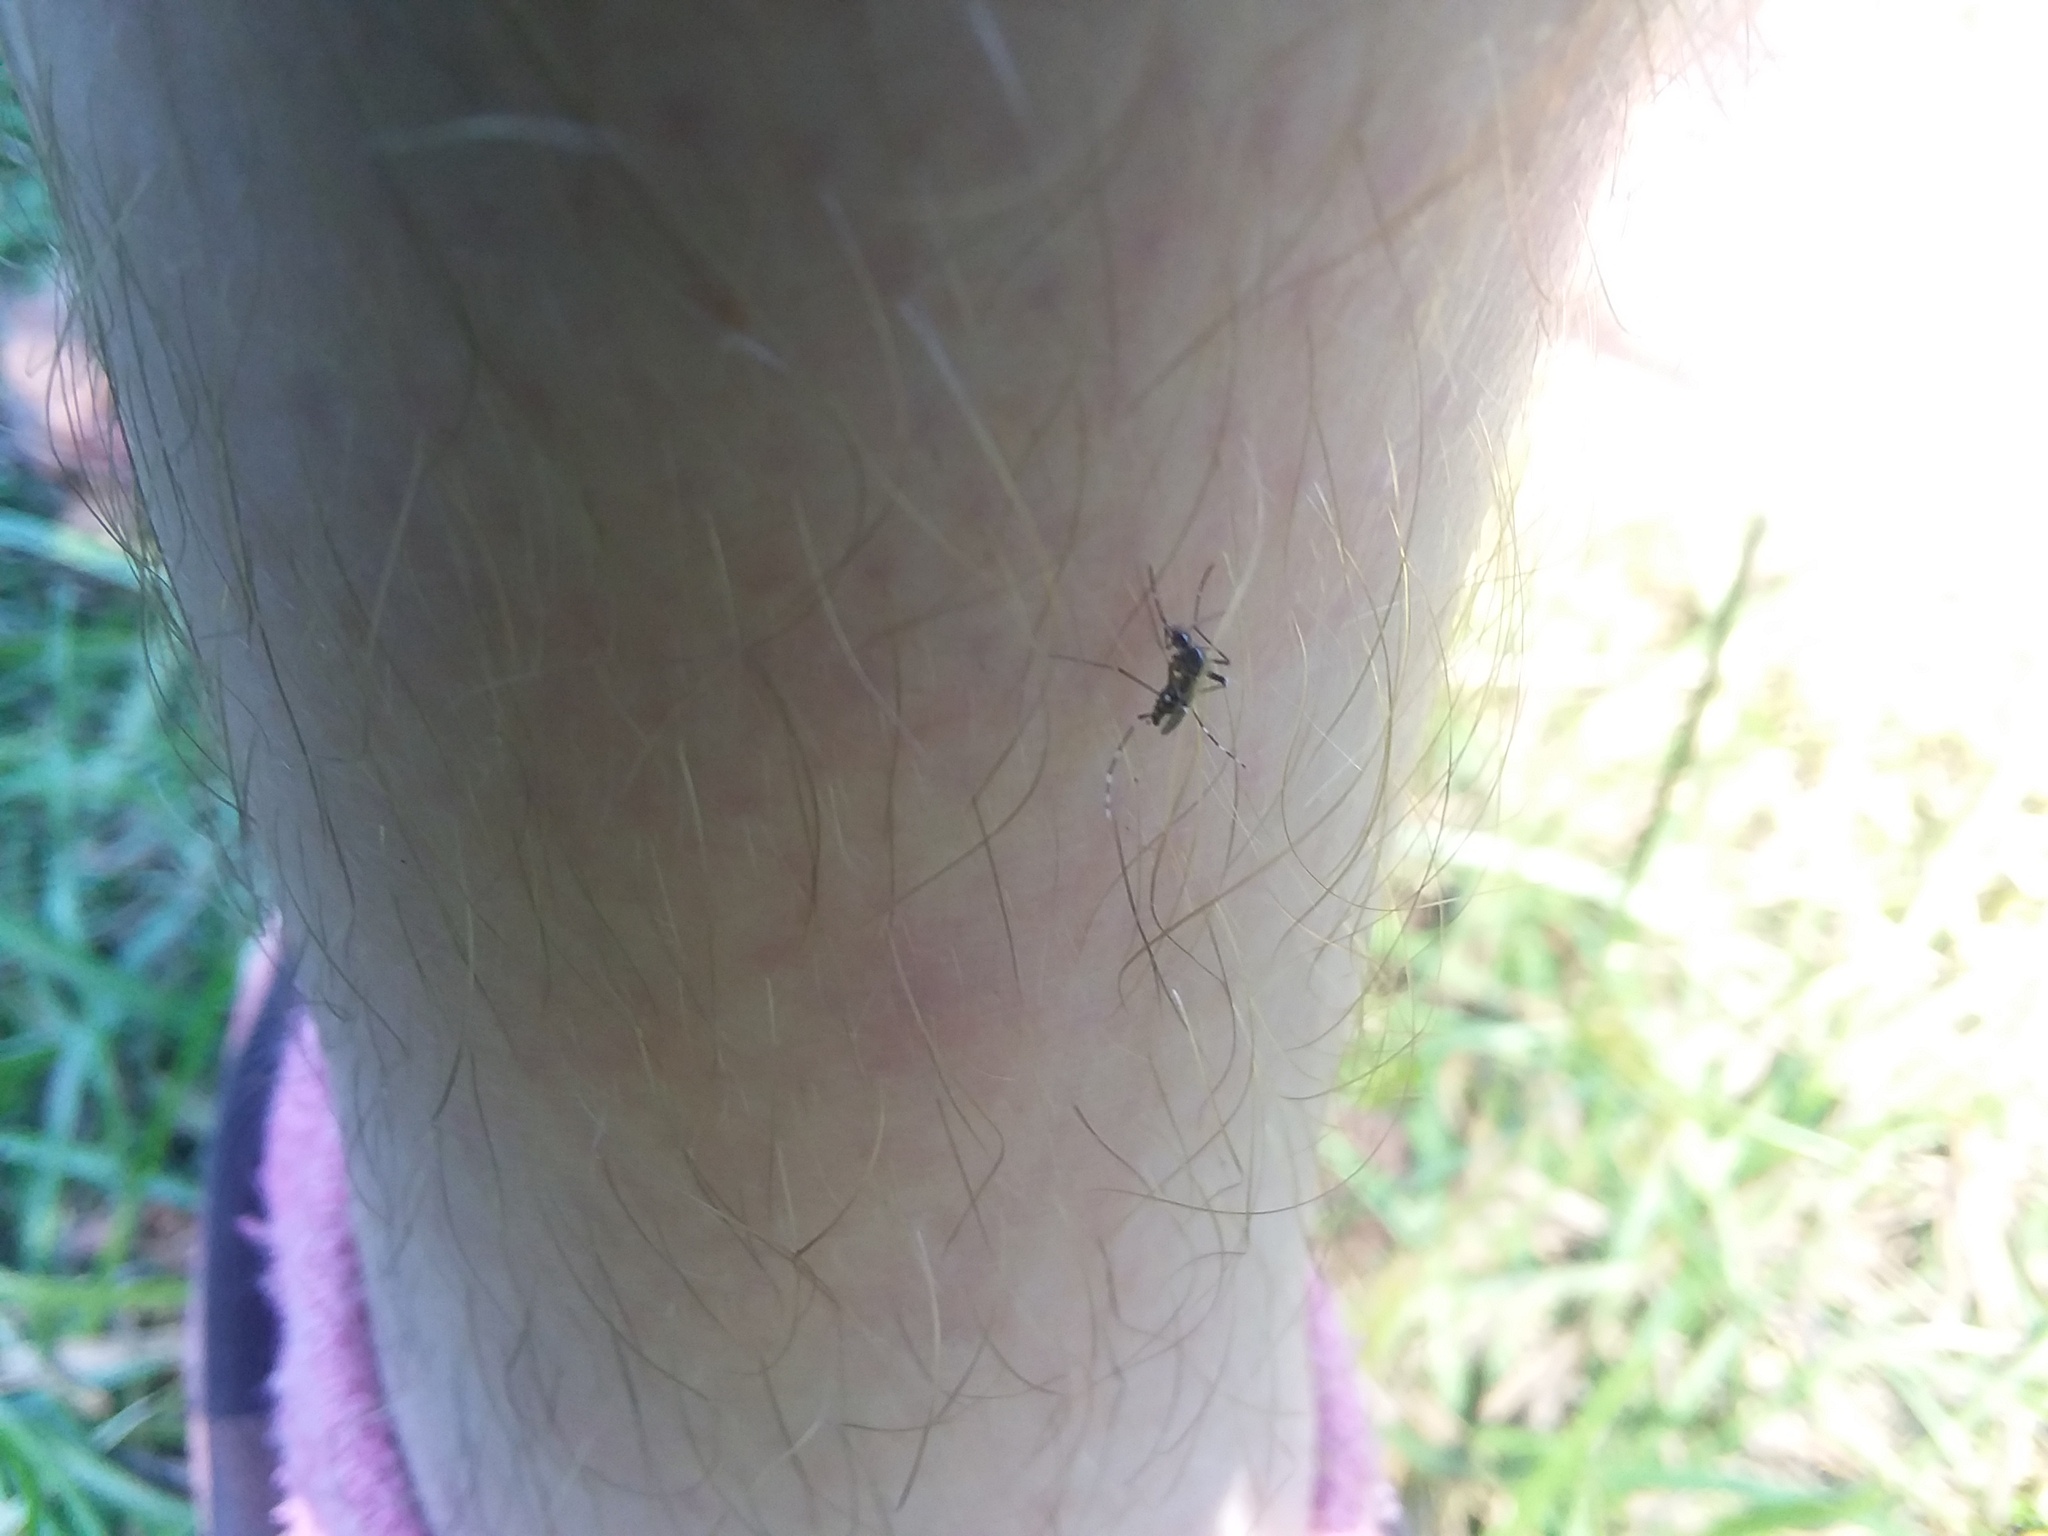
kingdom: Animalia
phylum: Arthropoda
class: Insecta
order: Diptera
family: Culicidae
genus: Aedes
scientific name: Aedes albopictus
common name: Tiger mosquito
